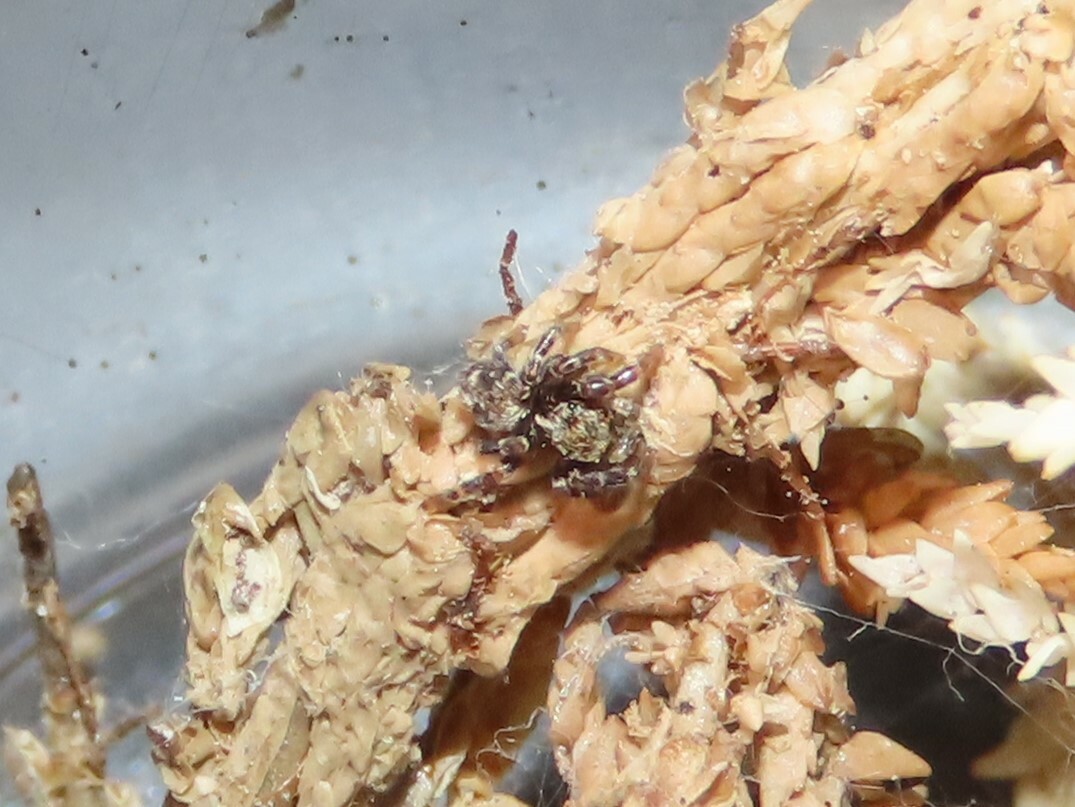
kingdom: Animalia
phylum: Arthropoda
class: Arachnida
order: Araneae
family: Salticidae
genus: Pseudeuophrys
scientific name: Pseudeuophrys erratica
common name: Jumping spider
